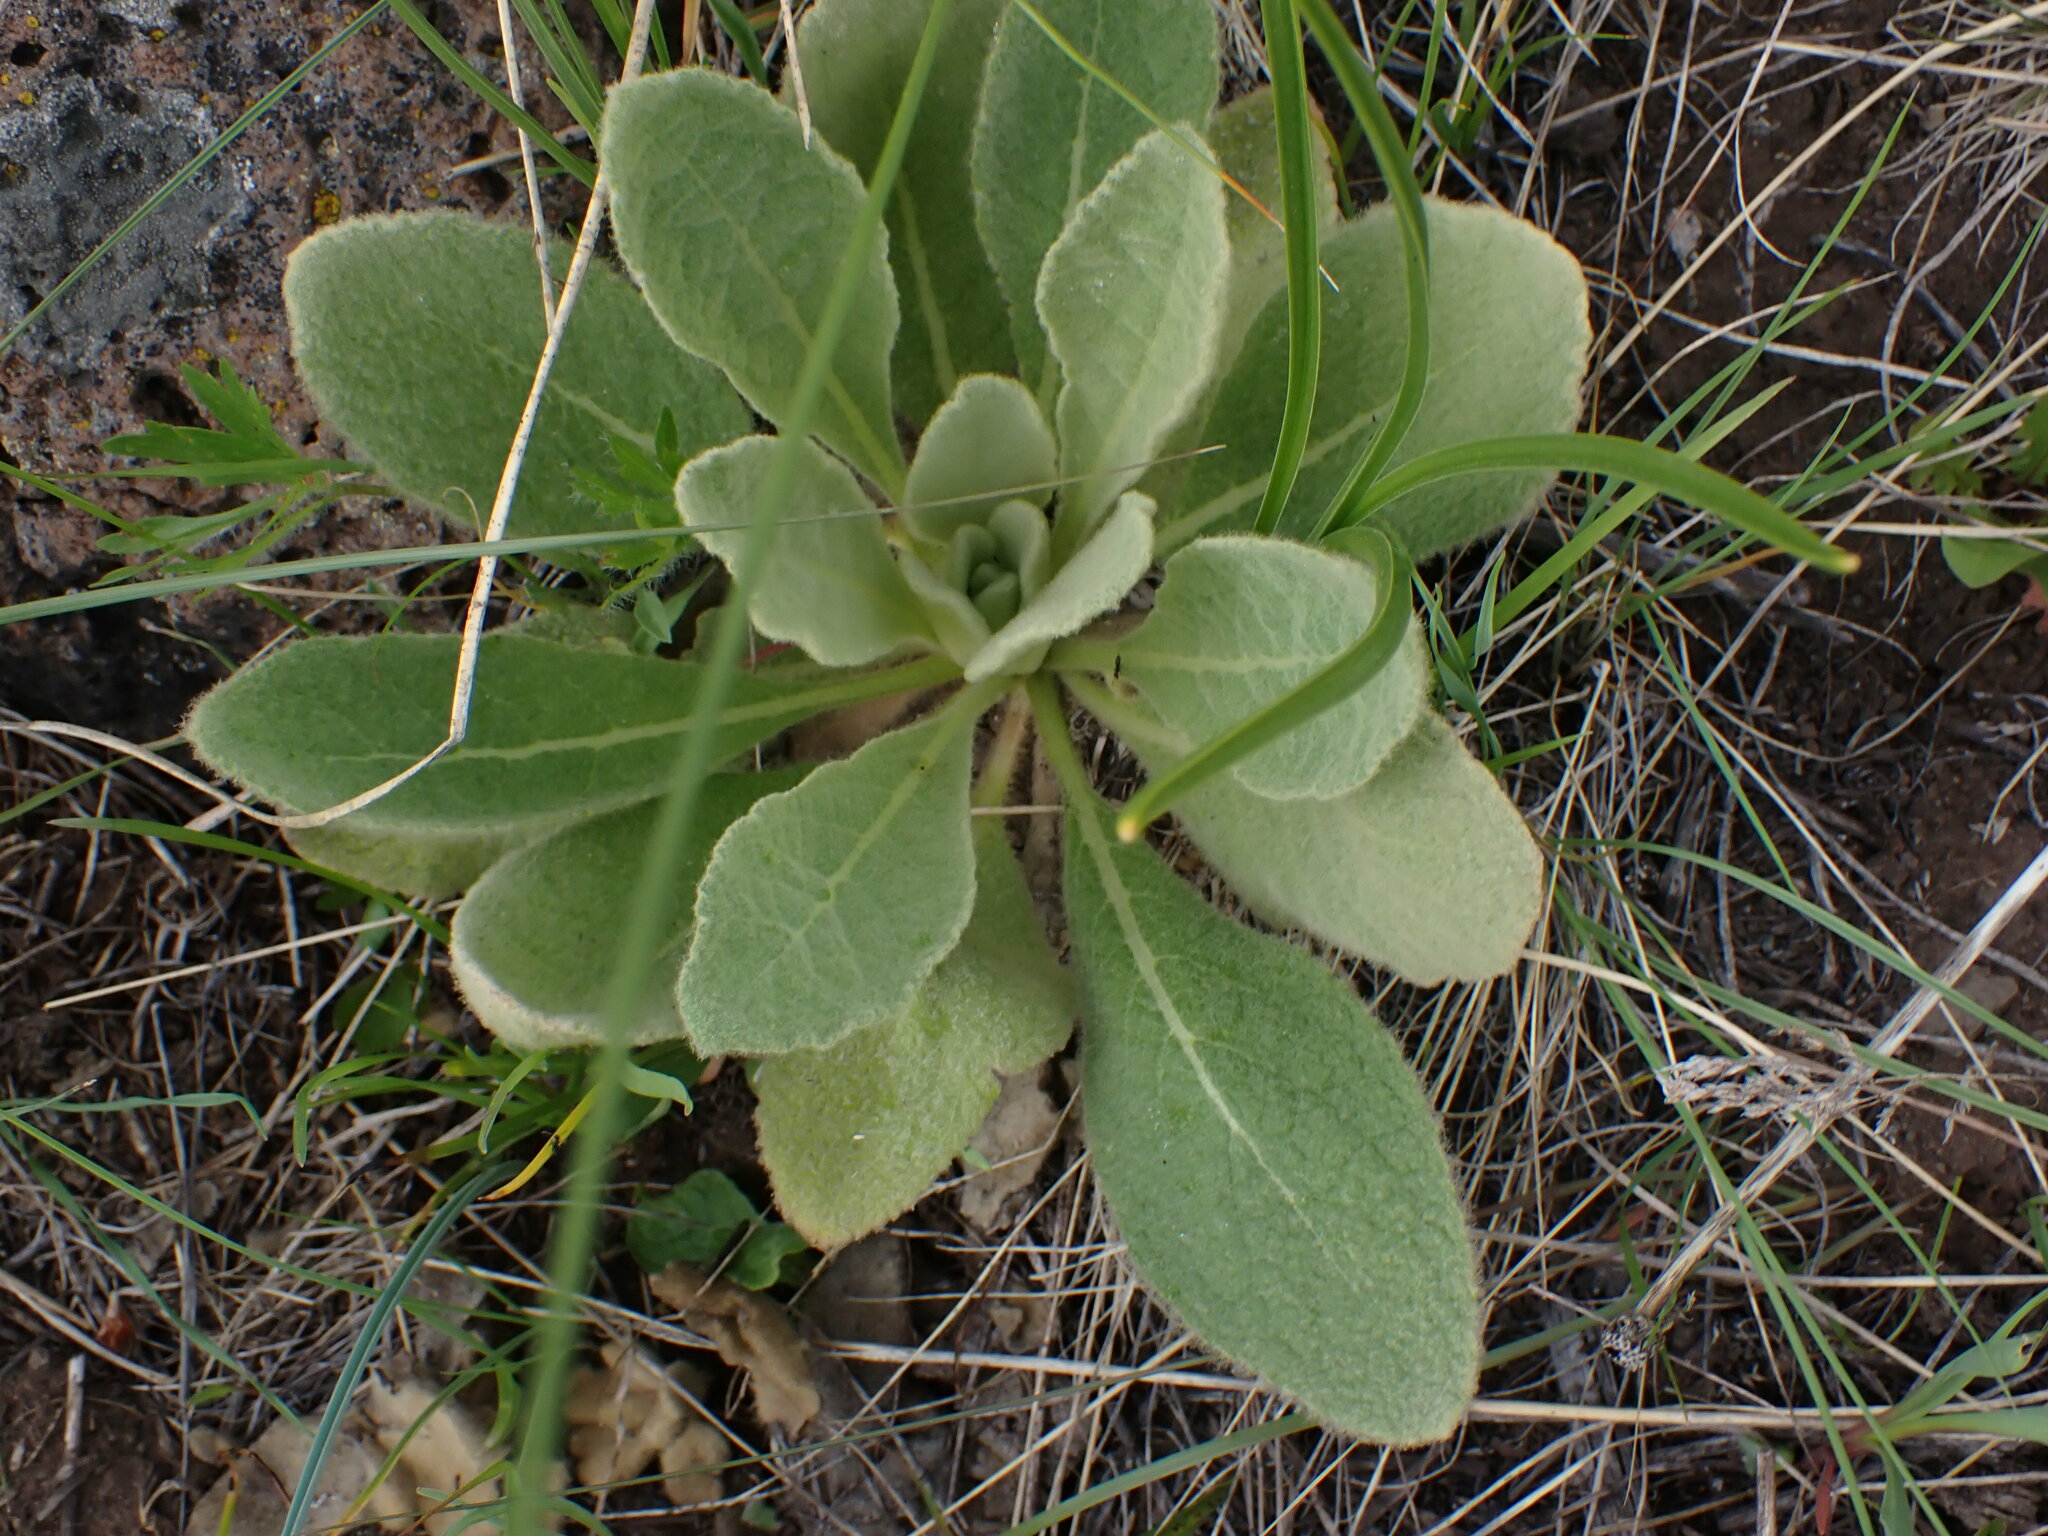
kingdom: Plantae
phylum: Tracheophyta
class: Magnoliopsida
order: Lamiales
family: Scrophulariaceae
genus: Verbascum
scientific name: Verbascum thapsus
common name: Common mullein
